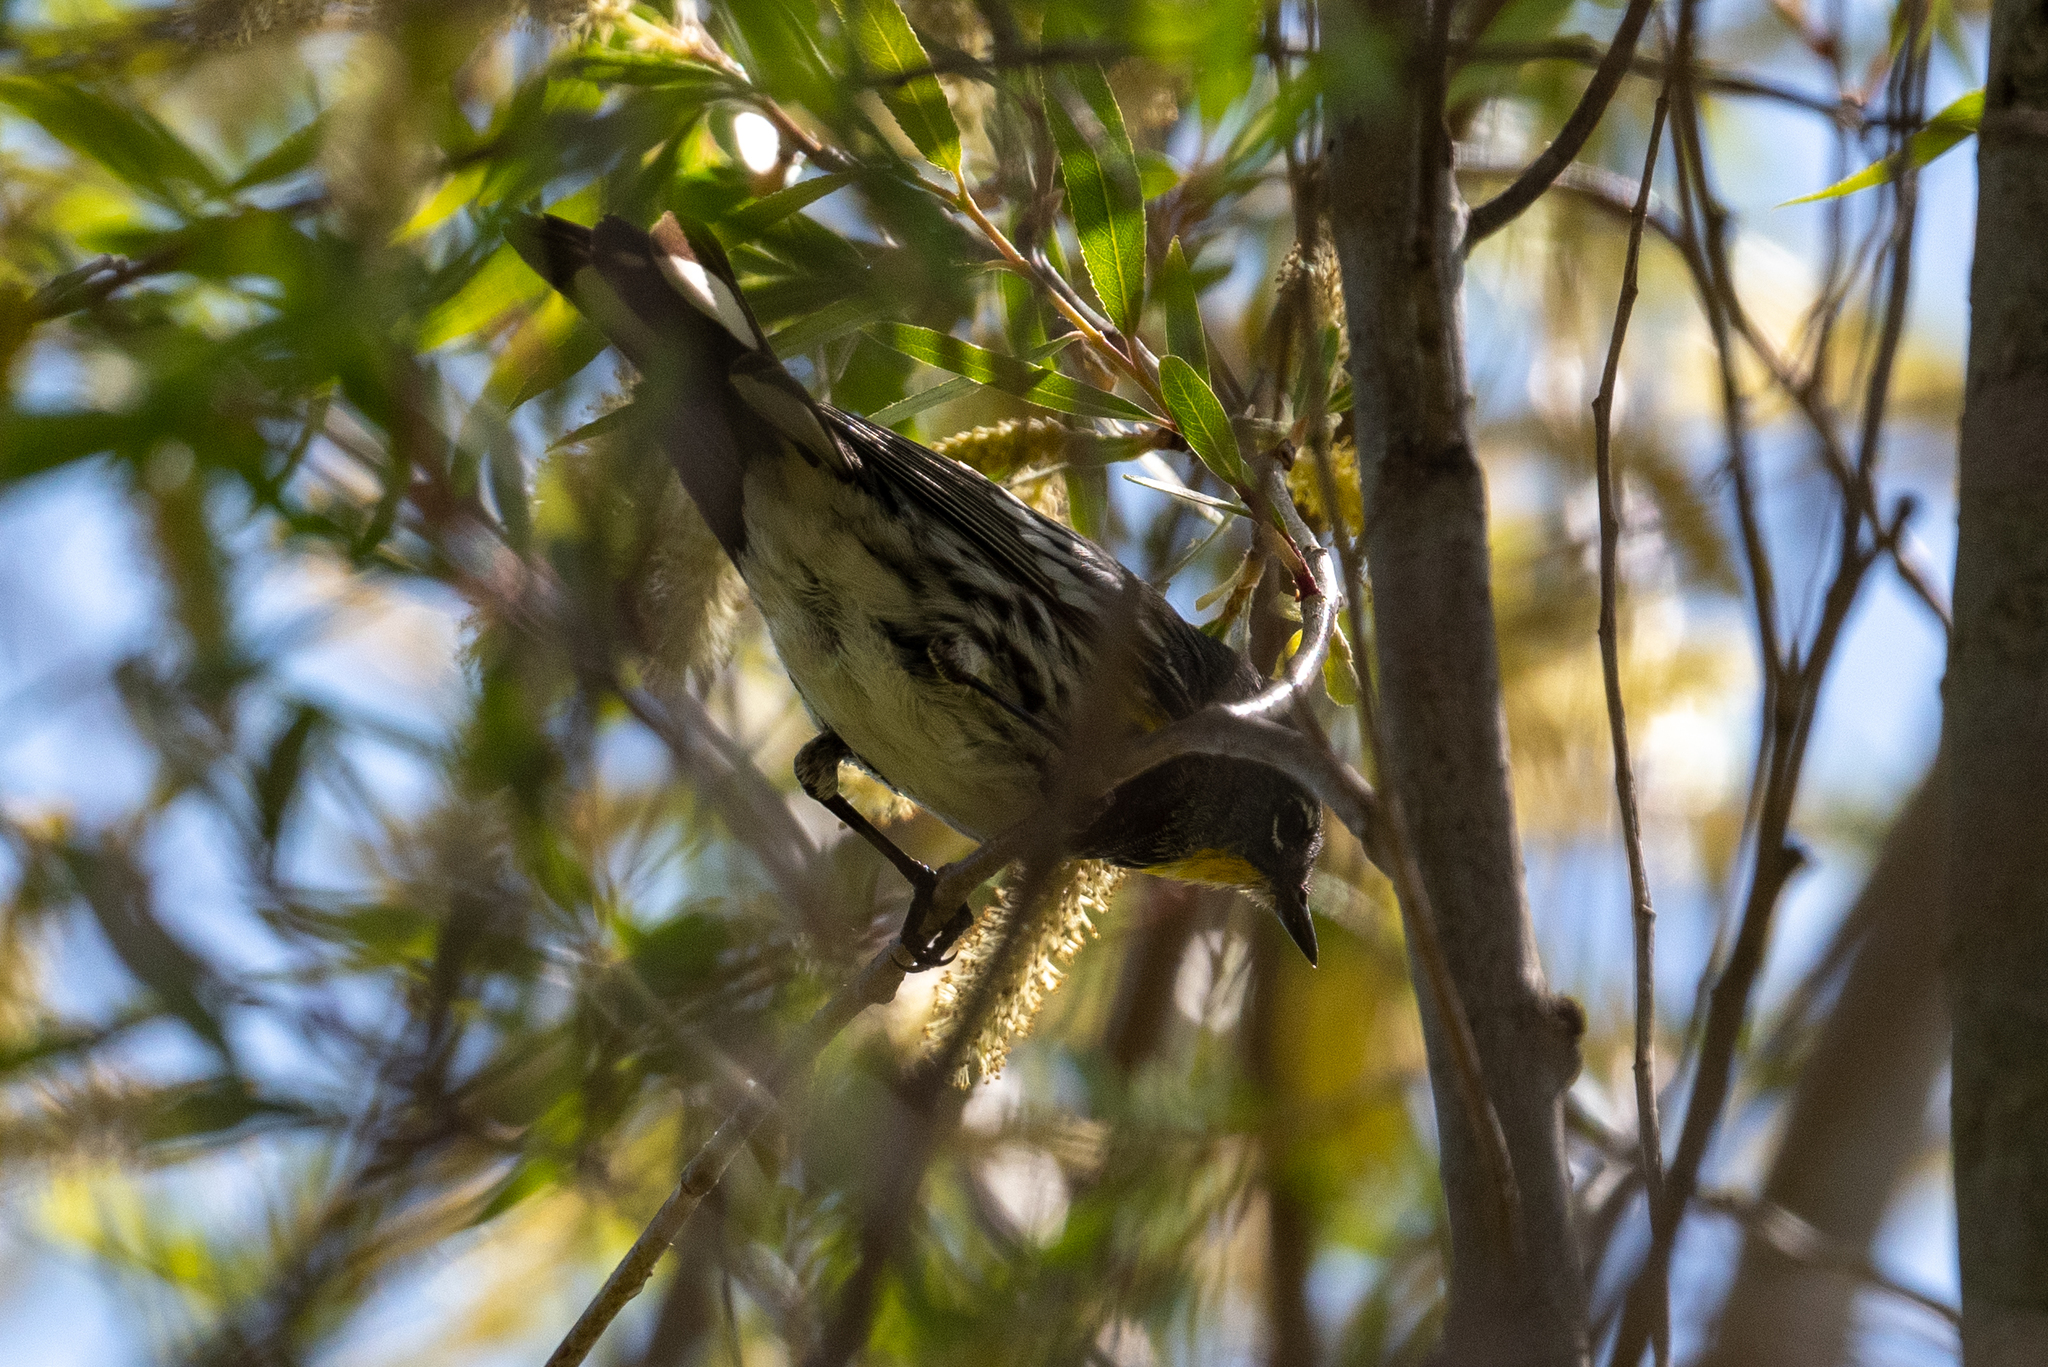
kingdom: Animalia
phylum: Chordata
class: Aves
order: Passeriformes
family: Parulidae
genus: Setophaga
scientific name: Setophaga auduboni
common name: Audubon's warbler
